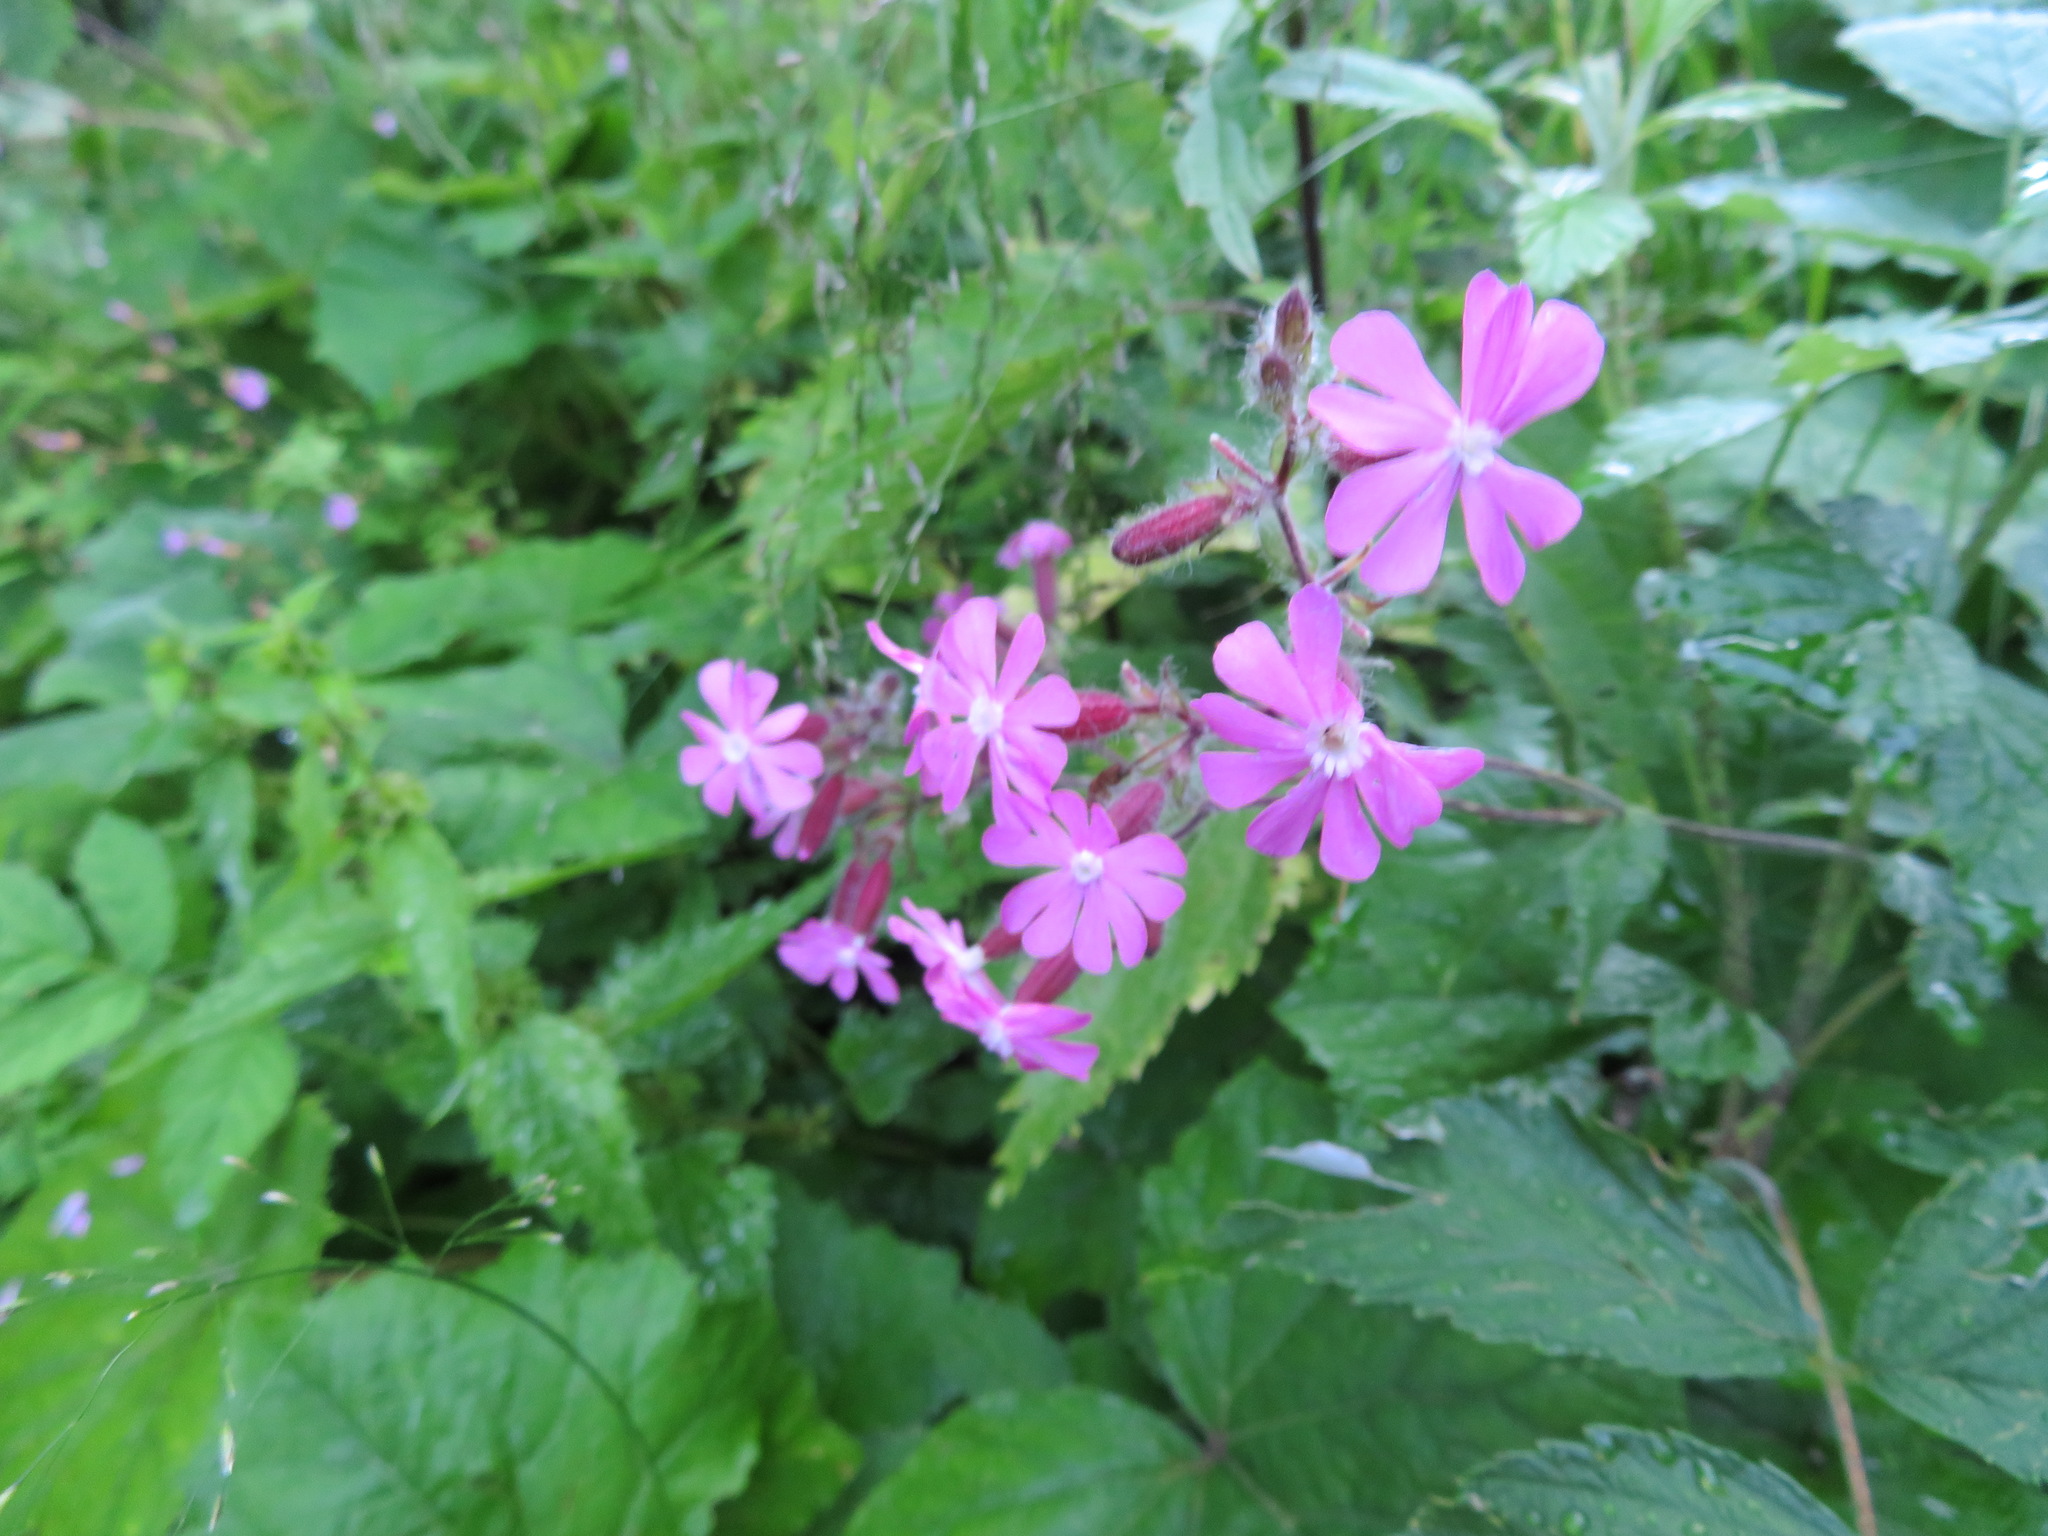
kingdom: Plantae
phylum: Tracheophyta
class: Magnoliopsida
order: Caryophyllales
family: Caryophyllaceae
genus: Silene
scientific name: Silene dioica
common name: Red campion
